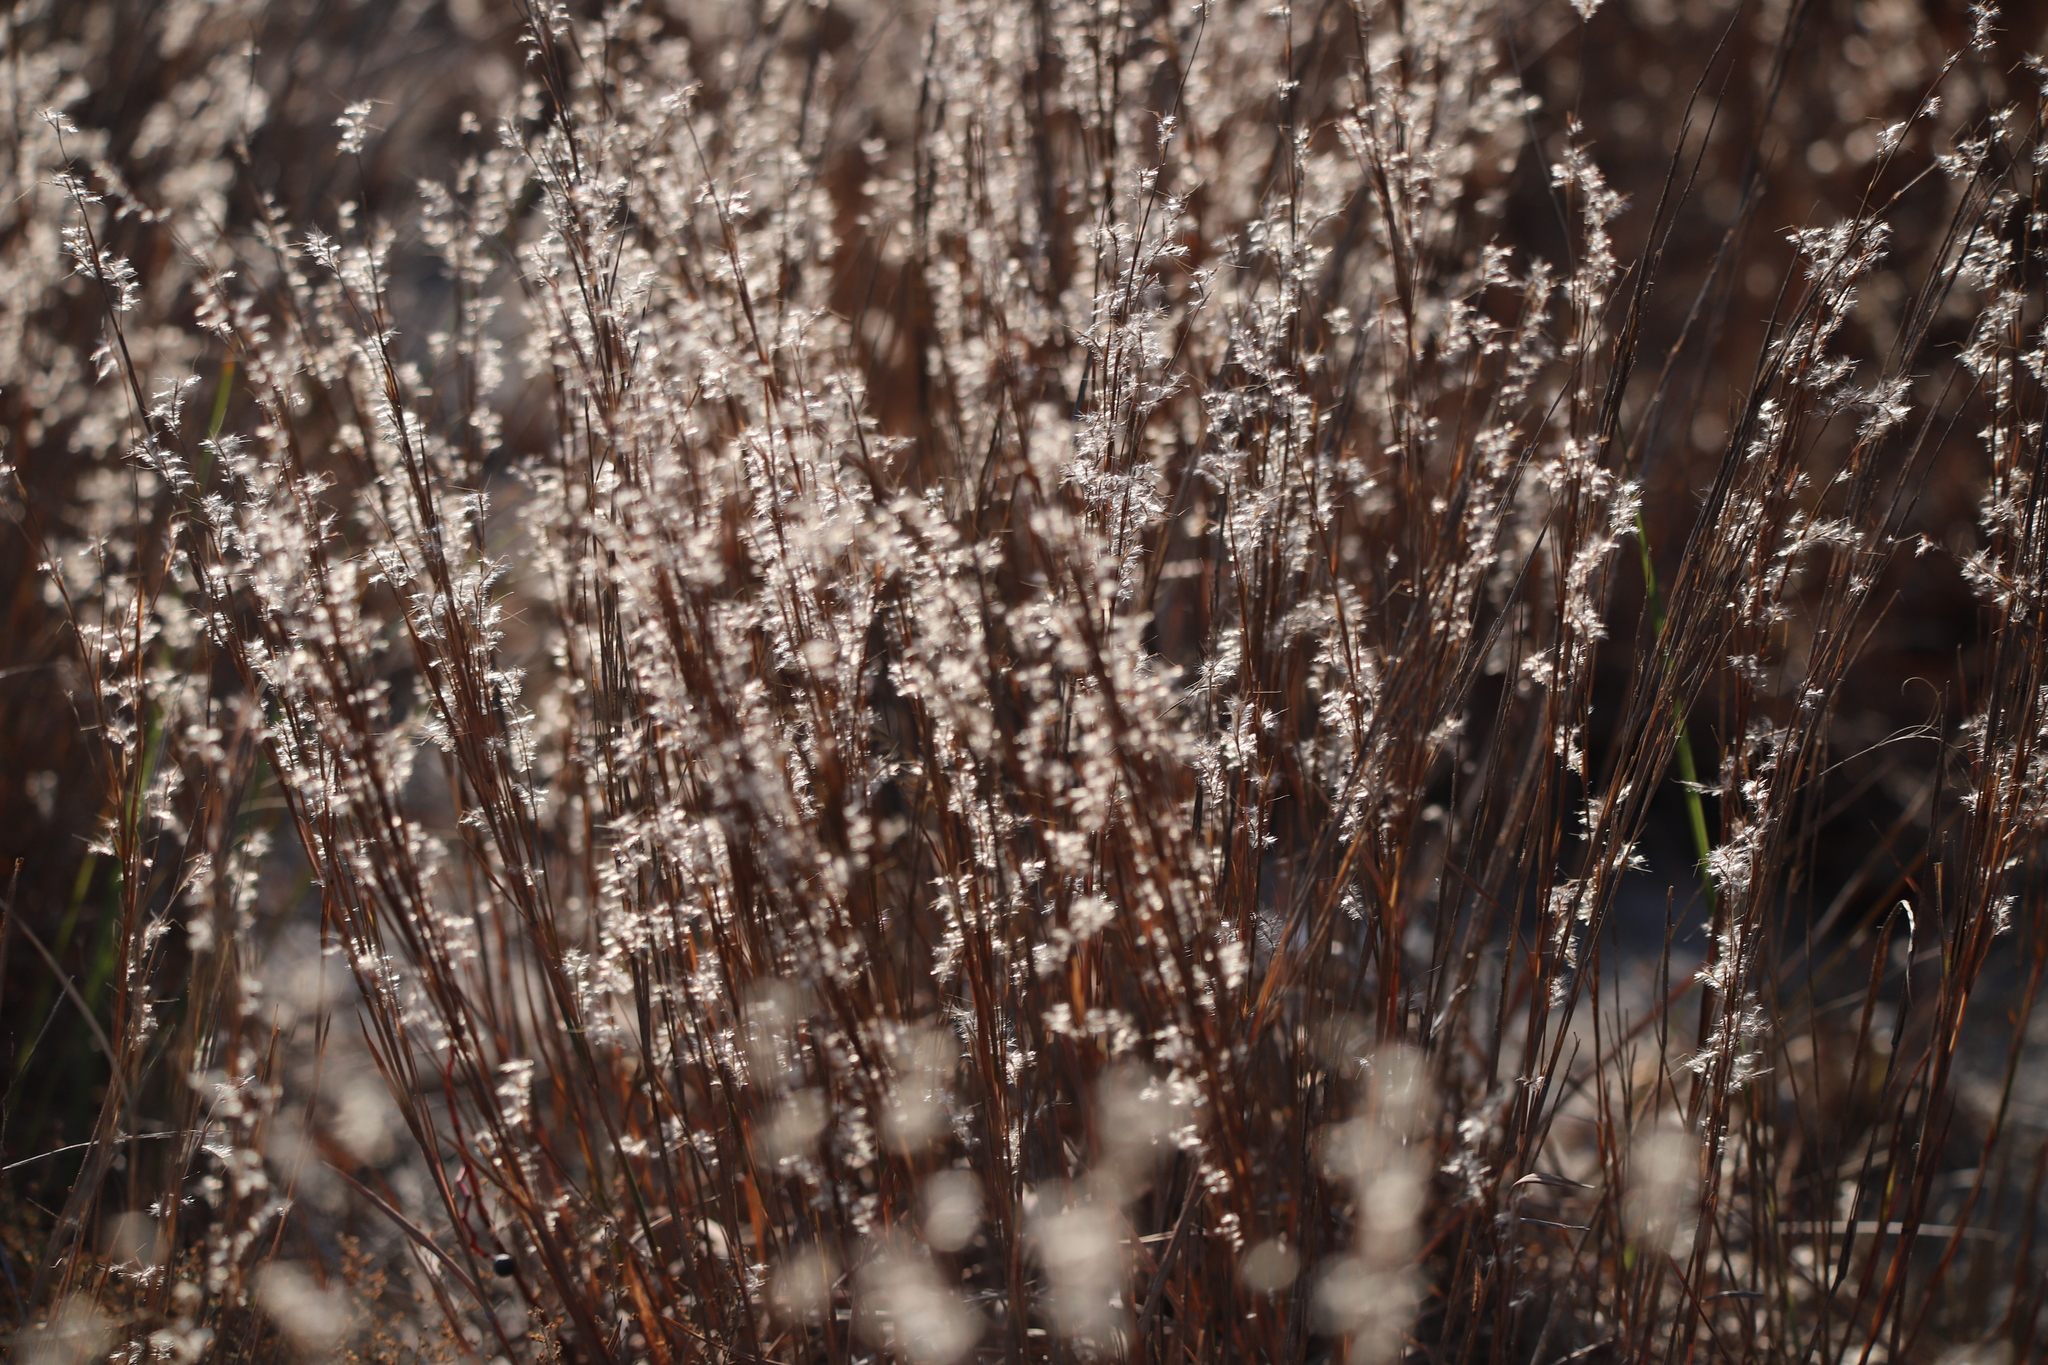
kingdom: Plantae
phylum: Tracheophyta
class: Liliopsida
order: Poales
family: Poaceae
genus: Schizachyrium
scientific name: Schizachyrium scoparium
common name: Little bluestem
